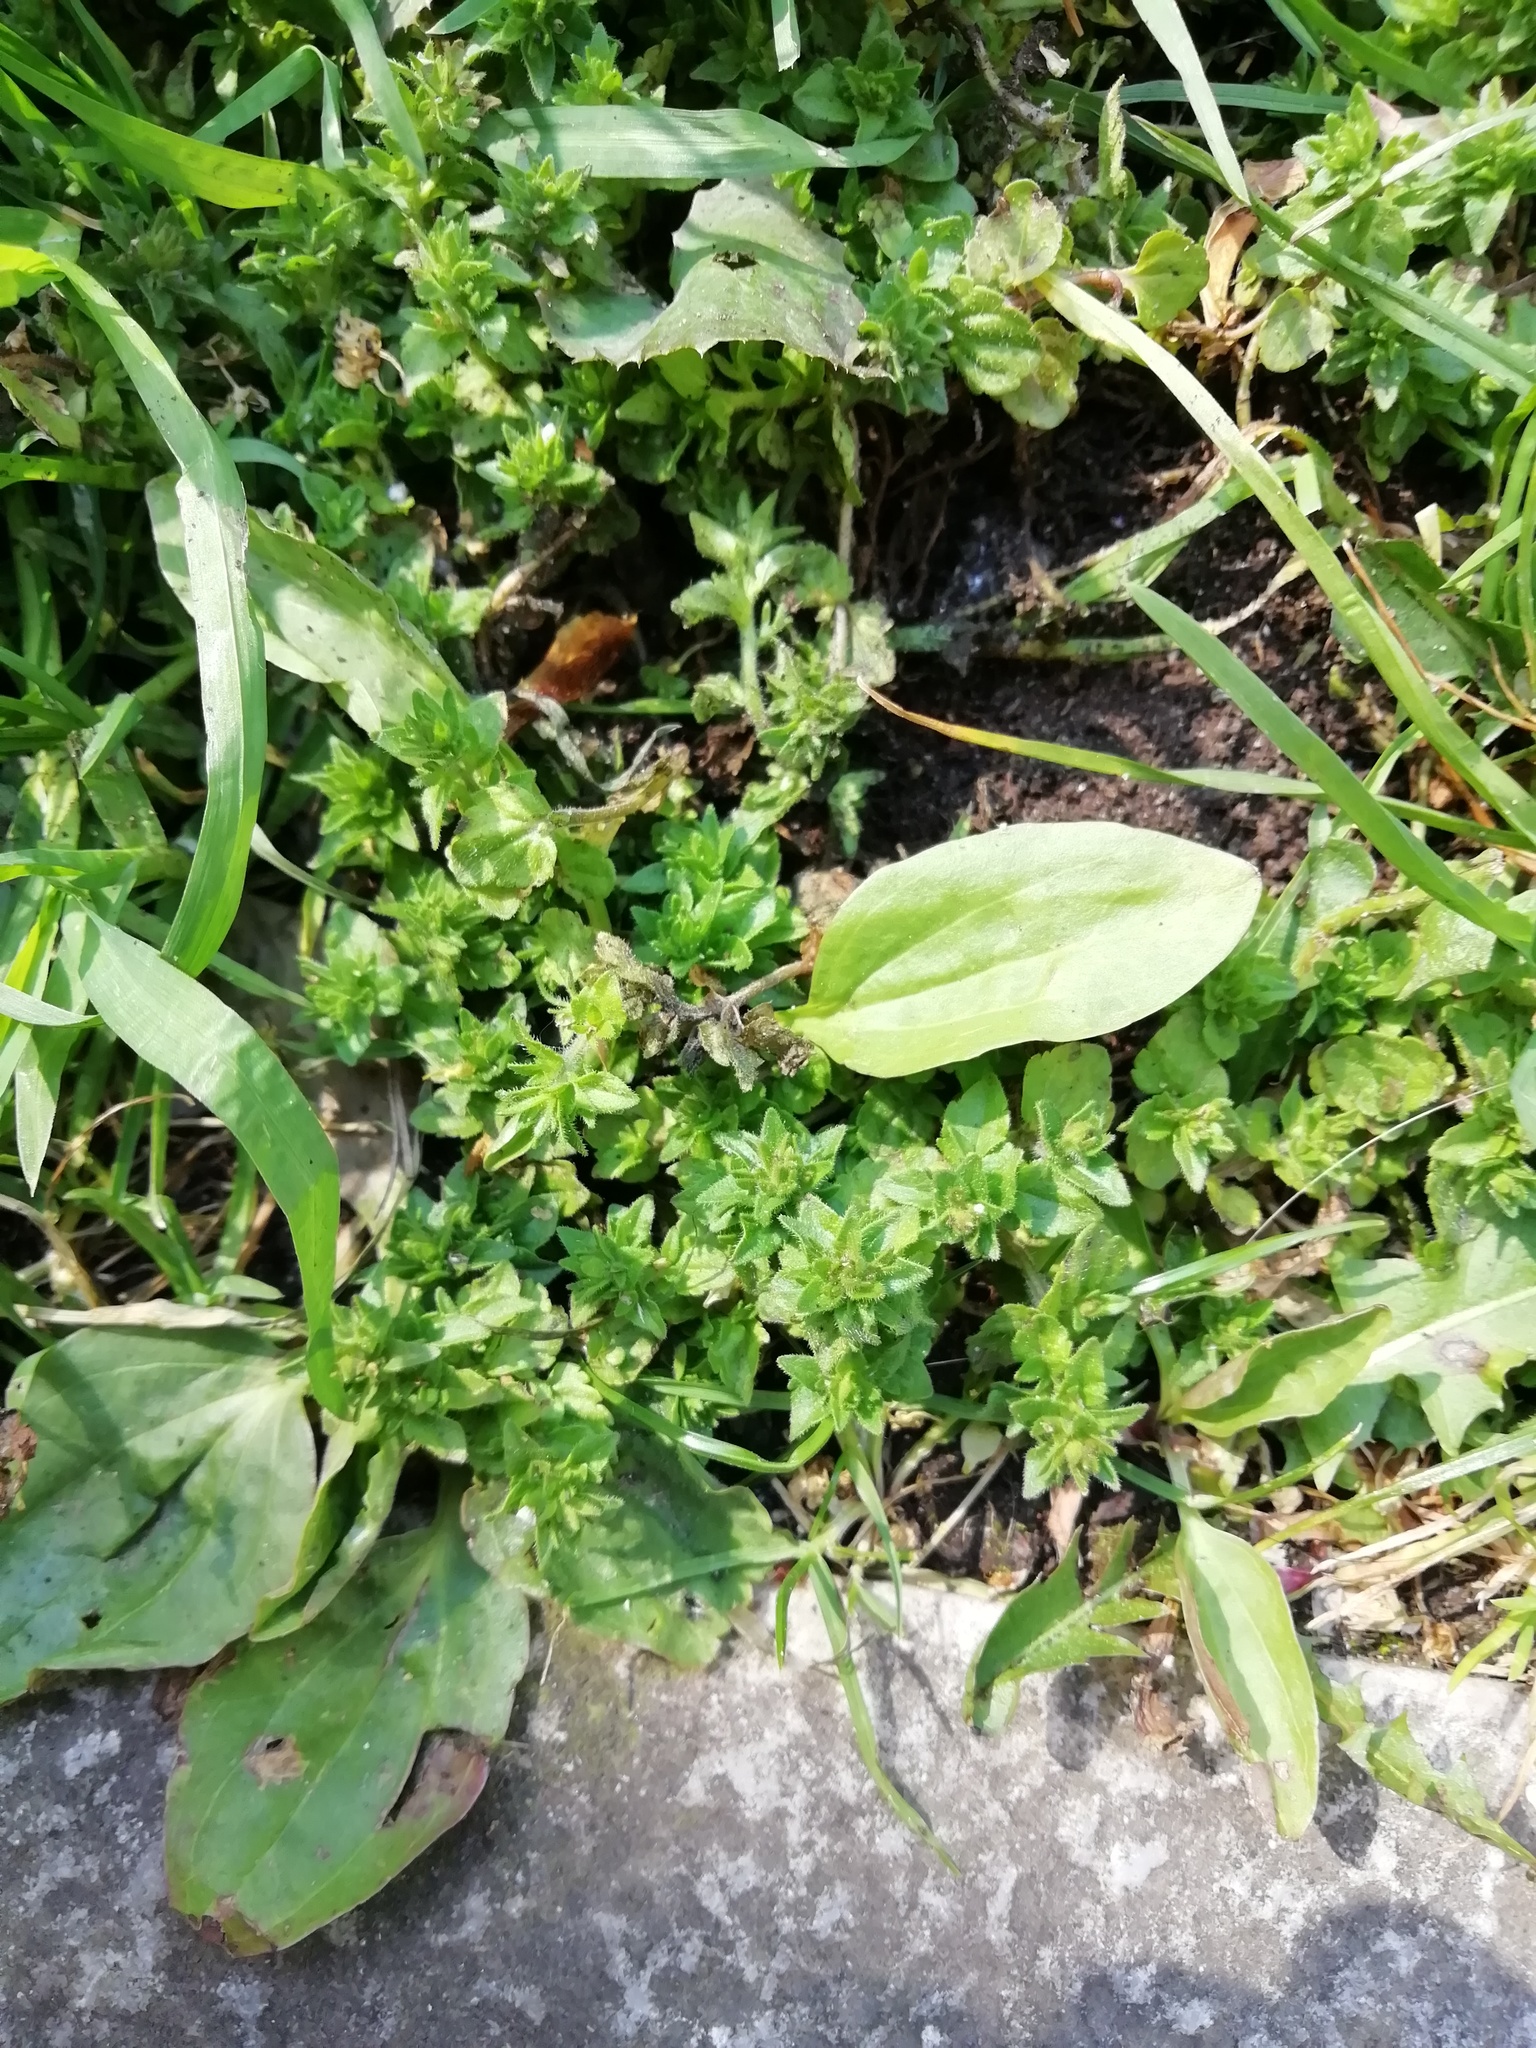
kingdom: Plantae
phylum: Tracheophyta
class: Magnoliopsida
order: Lamiales
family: Plantaginaceae
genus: Veronica
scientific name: Veronica arvensis
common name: Corn speedwell
